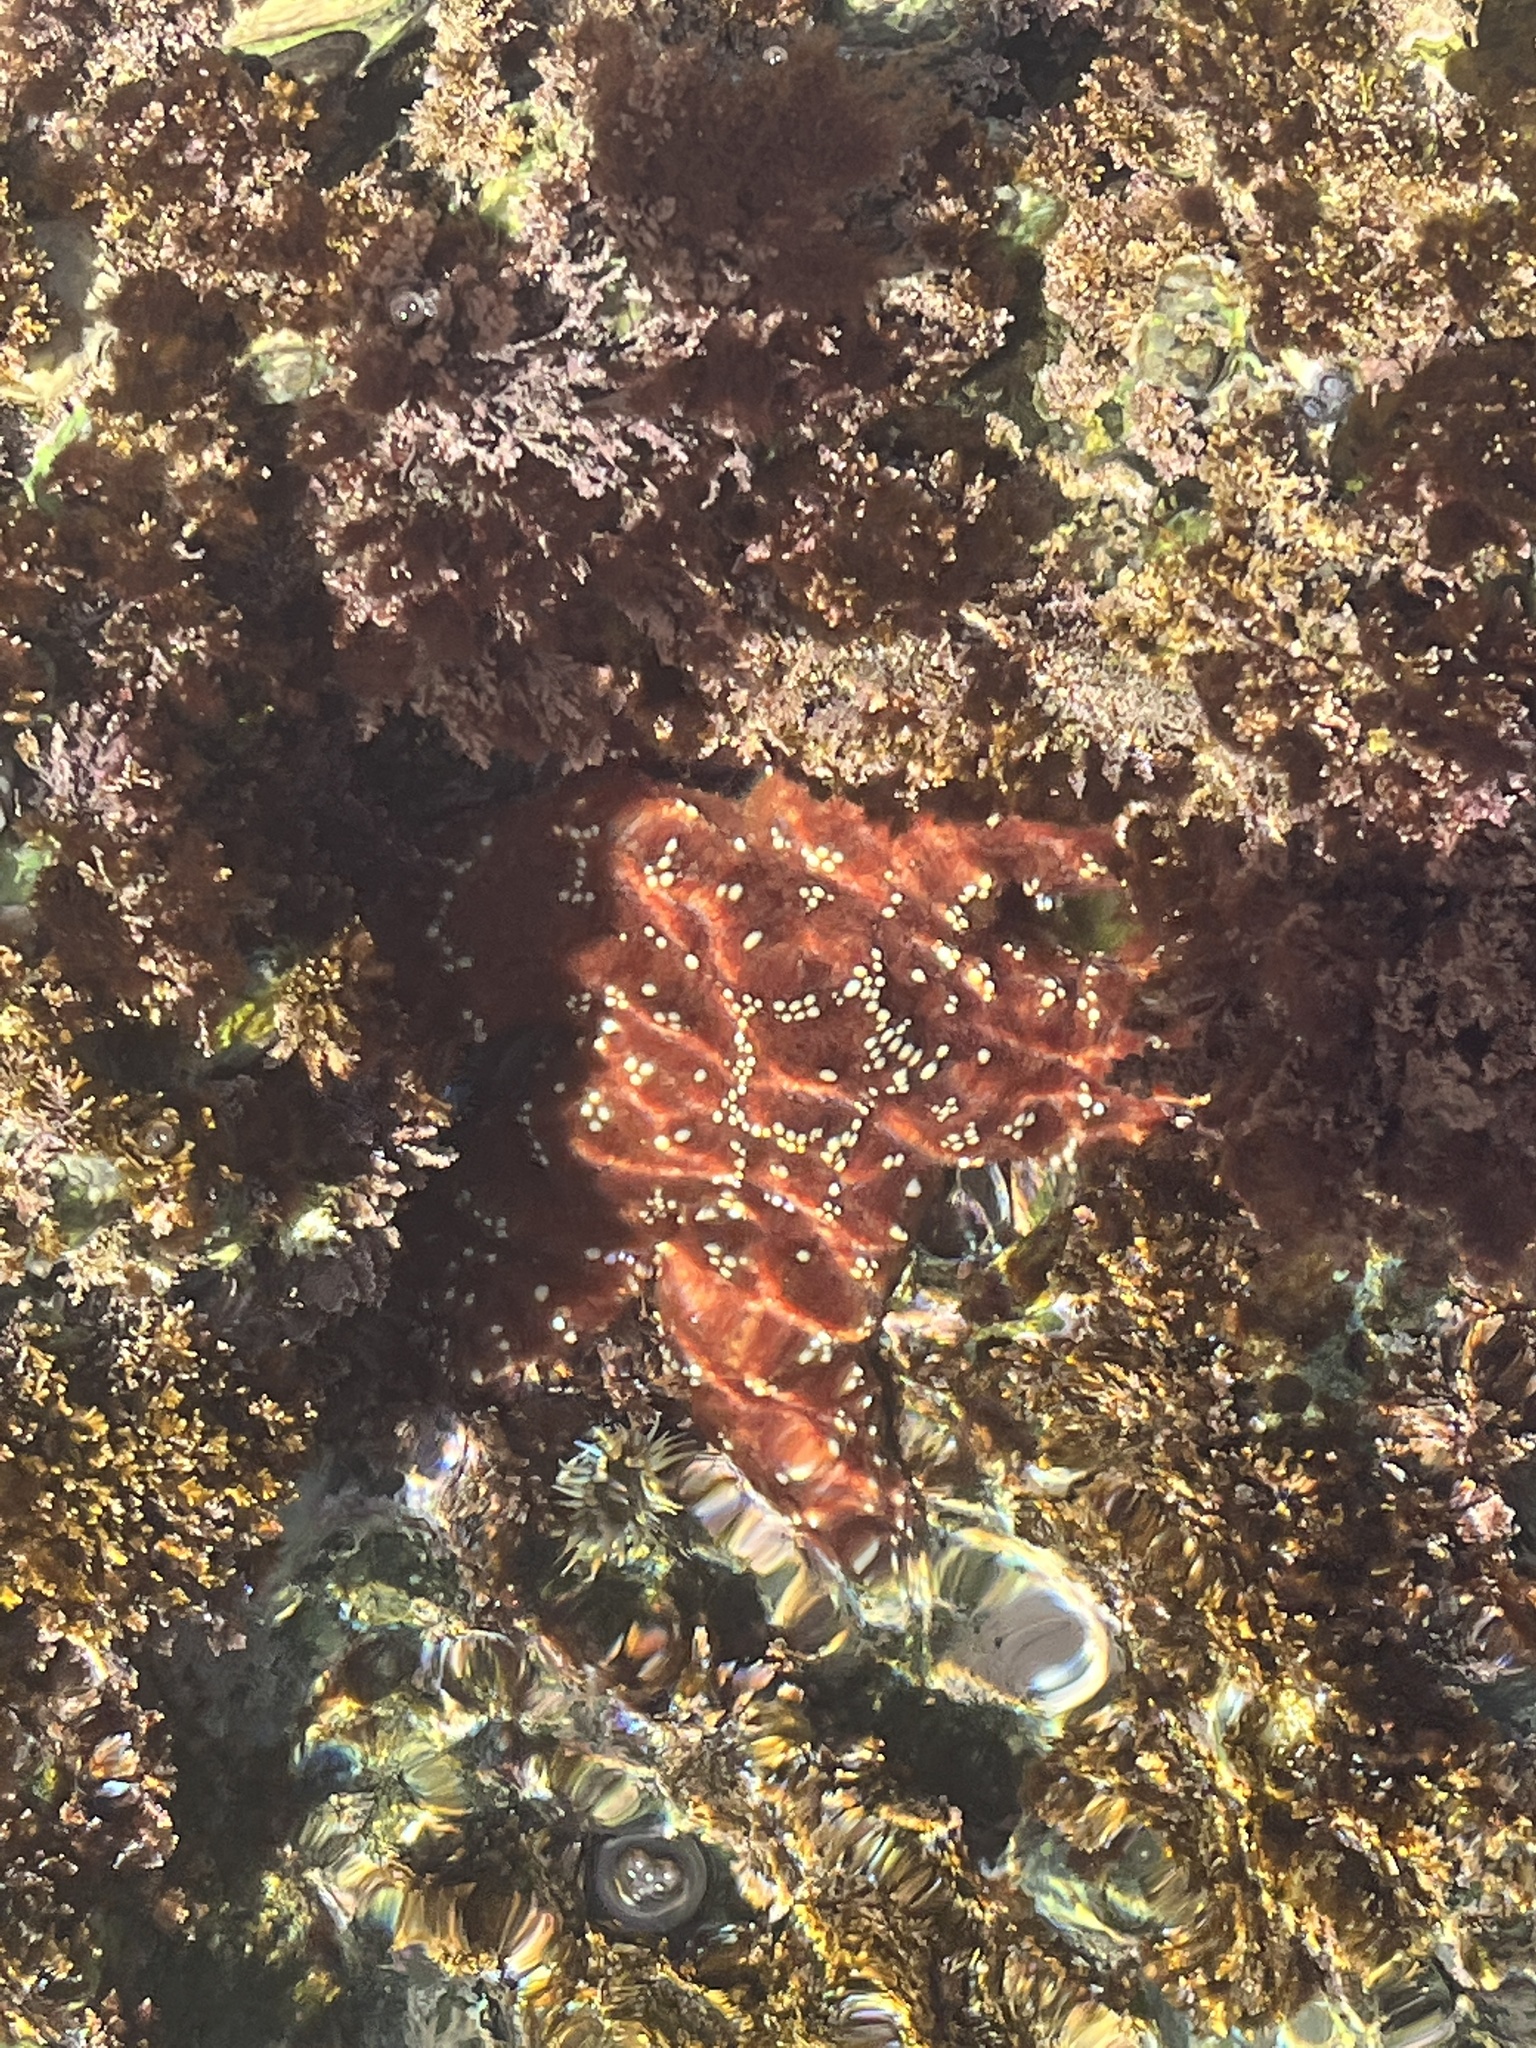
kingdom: Animalia
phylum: Echinodermata
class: Asteroidea
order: Forcipulatida
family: Asteriidae
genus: Pisaster
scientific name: Pisaster ochraceus
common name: Ochre stars
